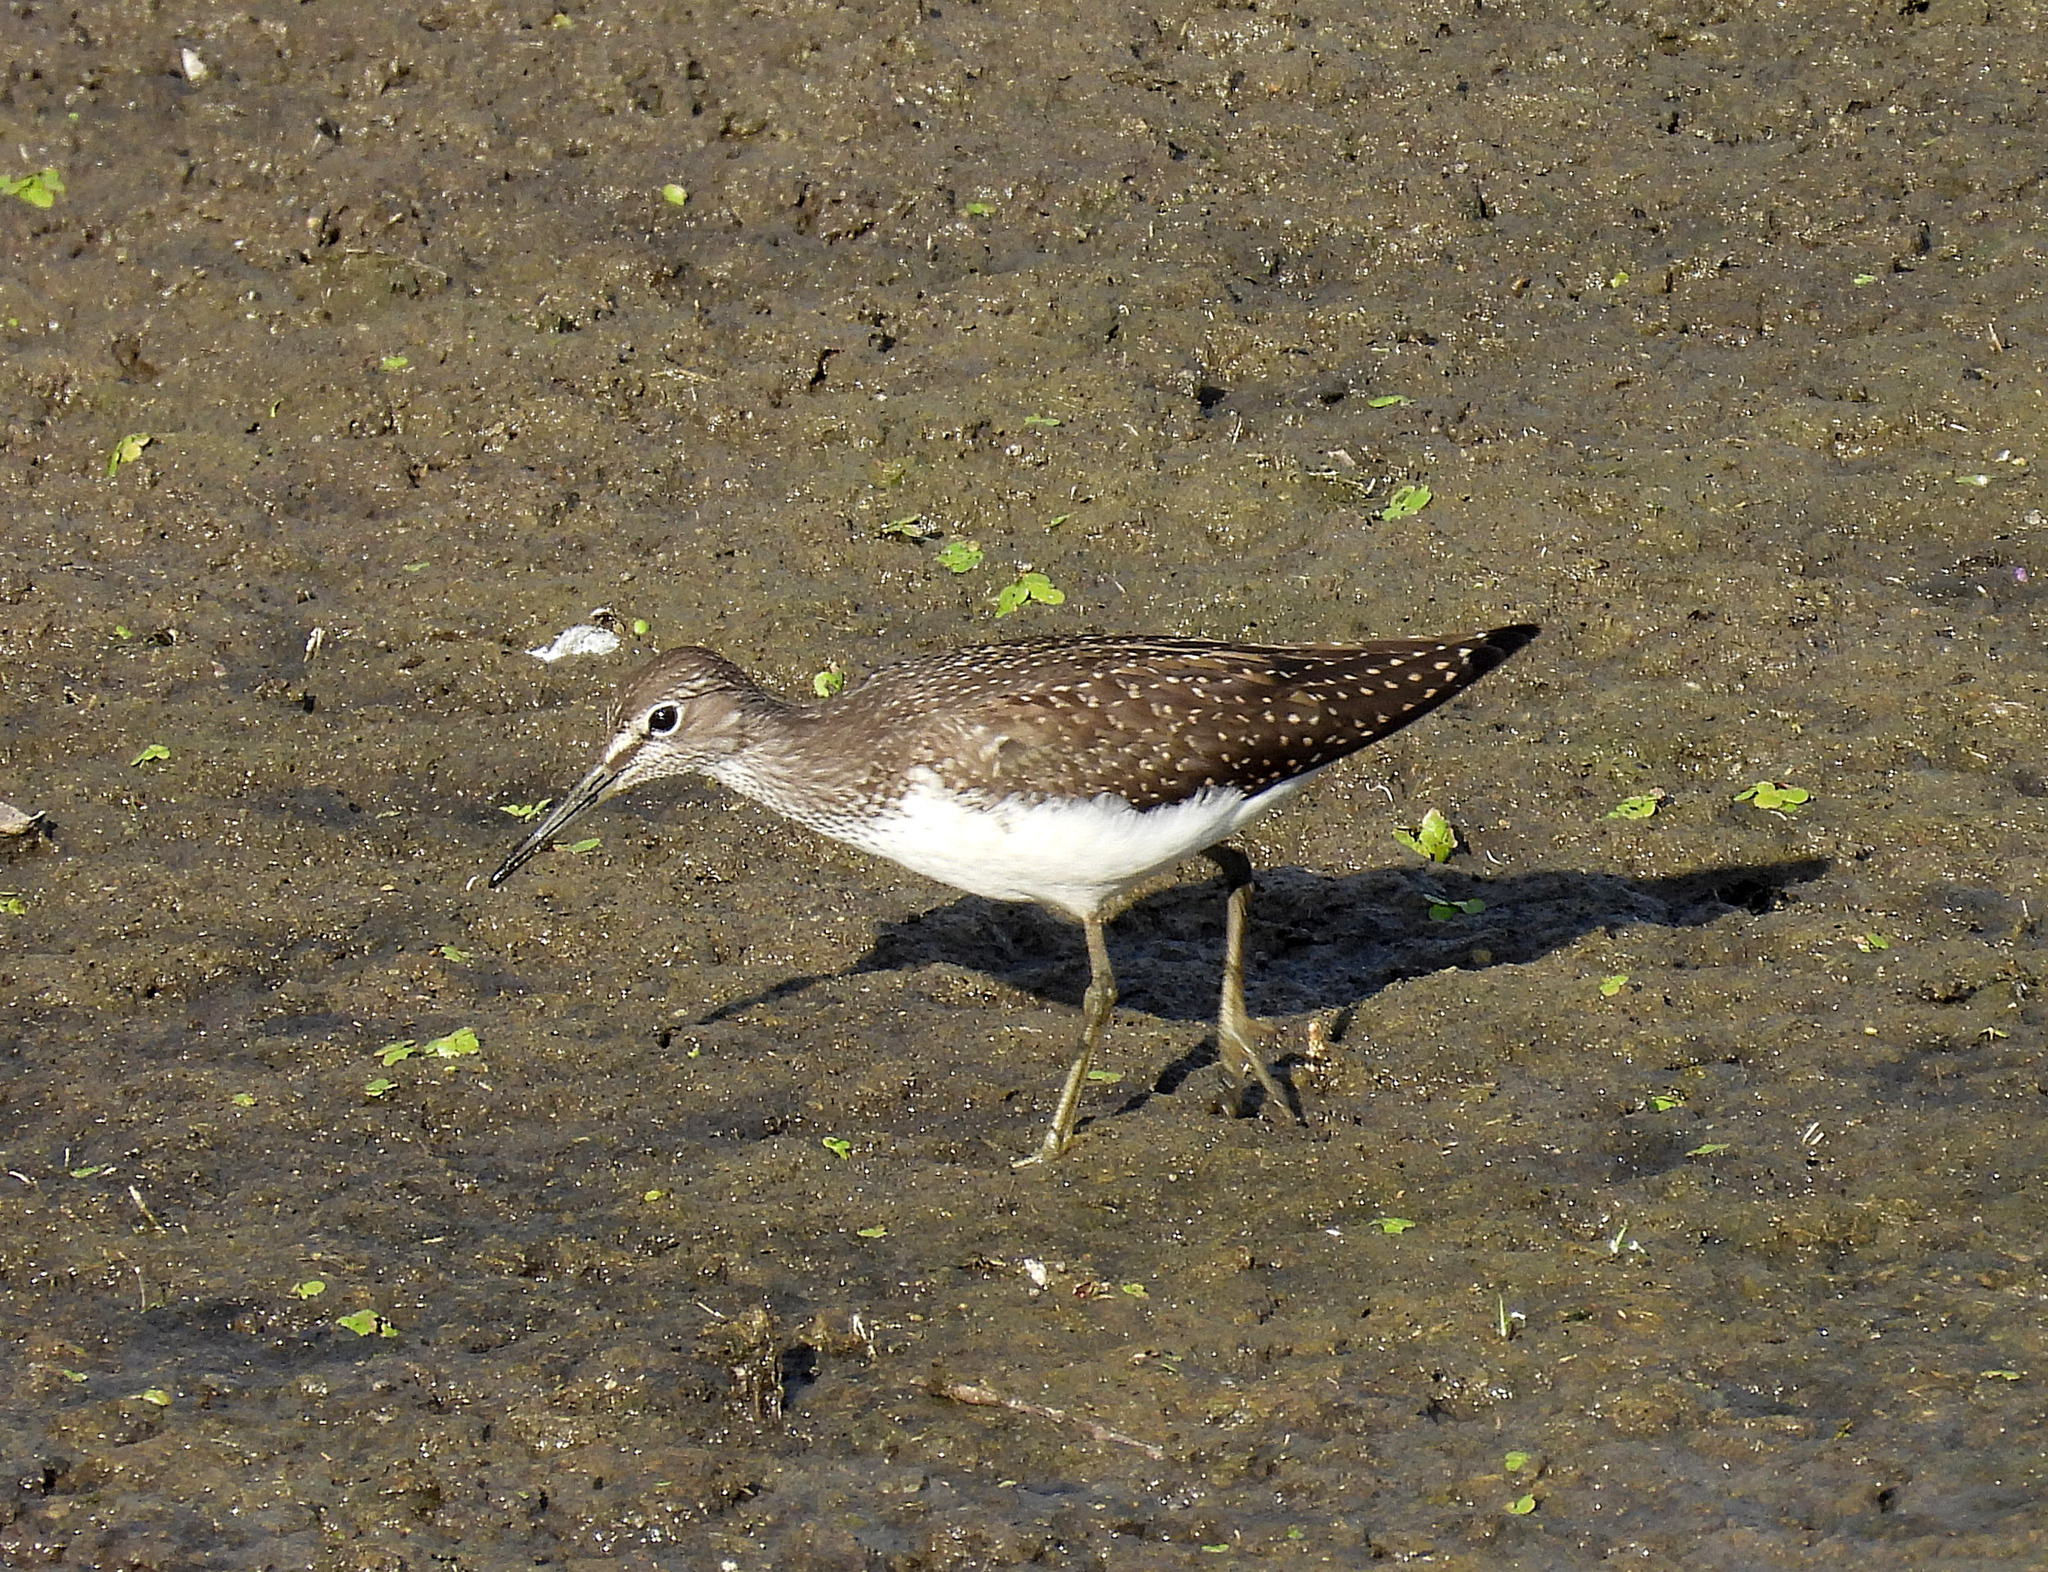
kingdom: Animalia
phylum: Chordata
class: Aves
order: Charadriiformes
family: Scolopacidae
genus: Tringa
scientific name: Tringa ochropus
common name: Green sandpiper
